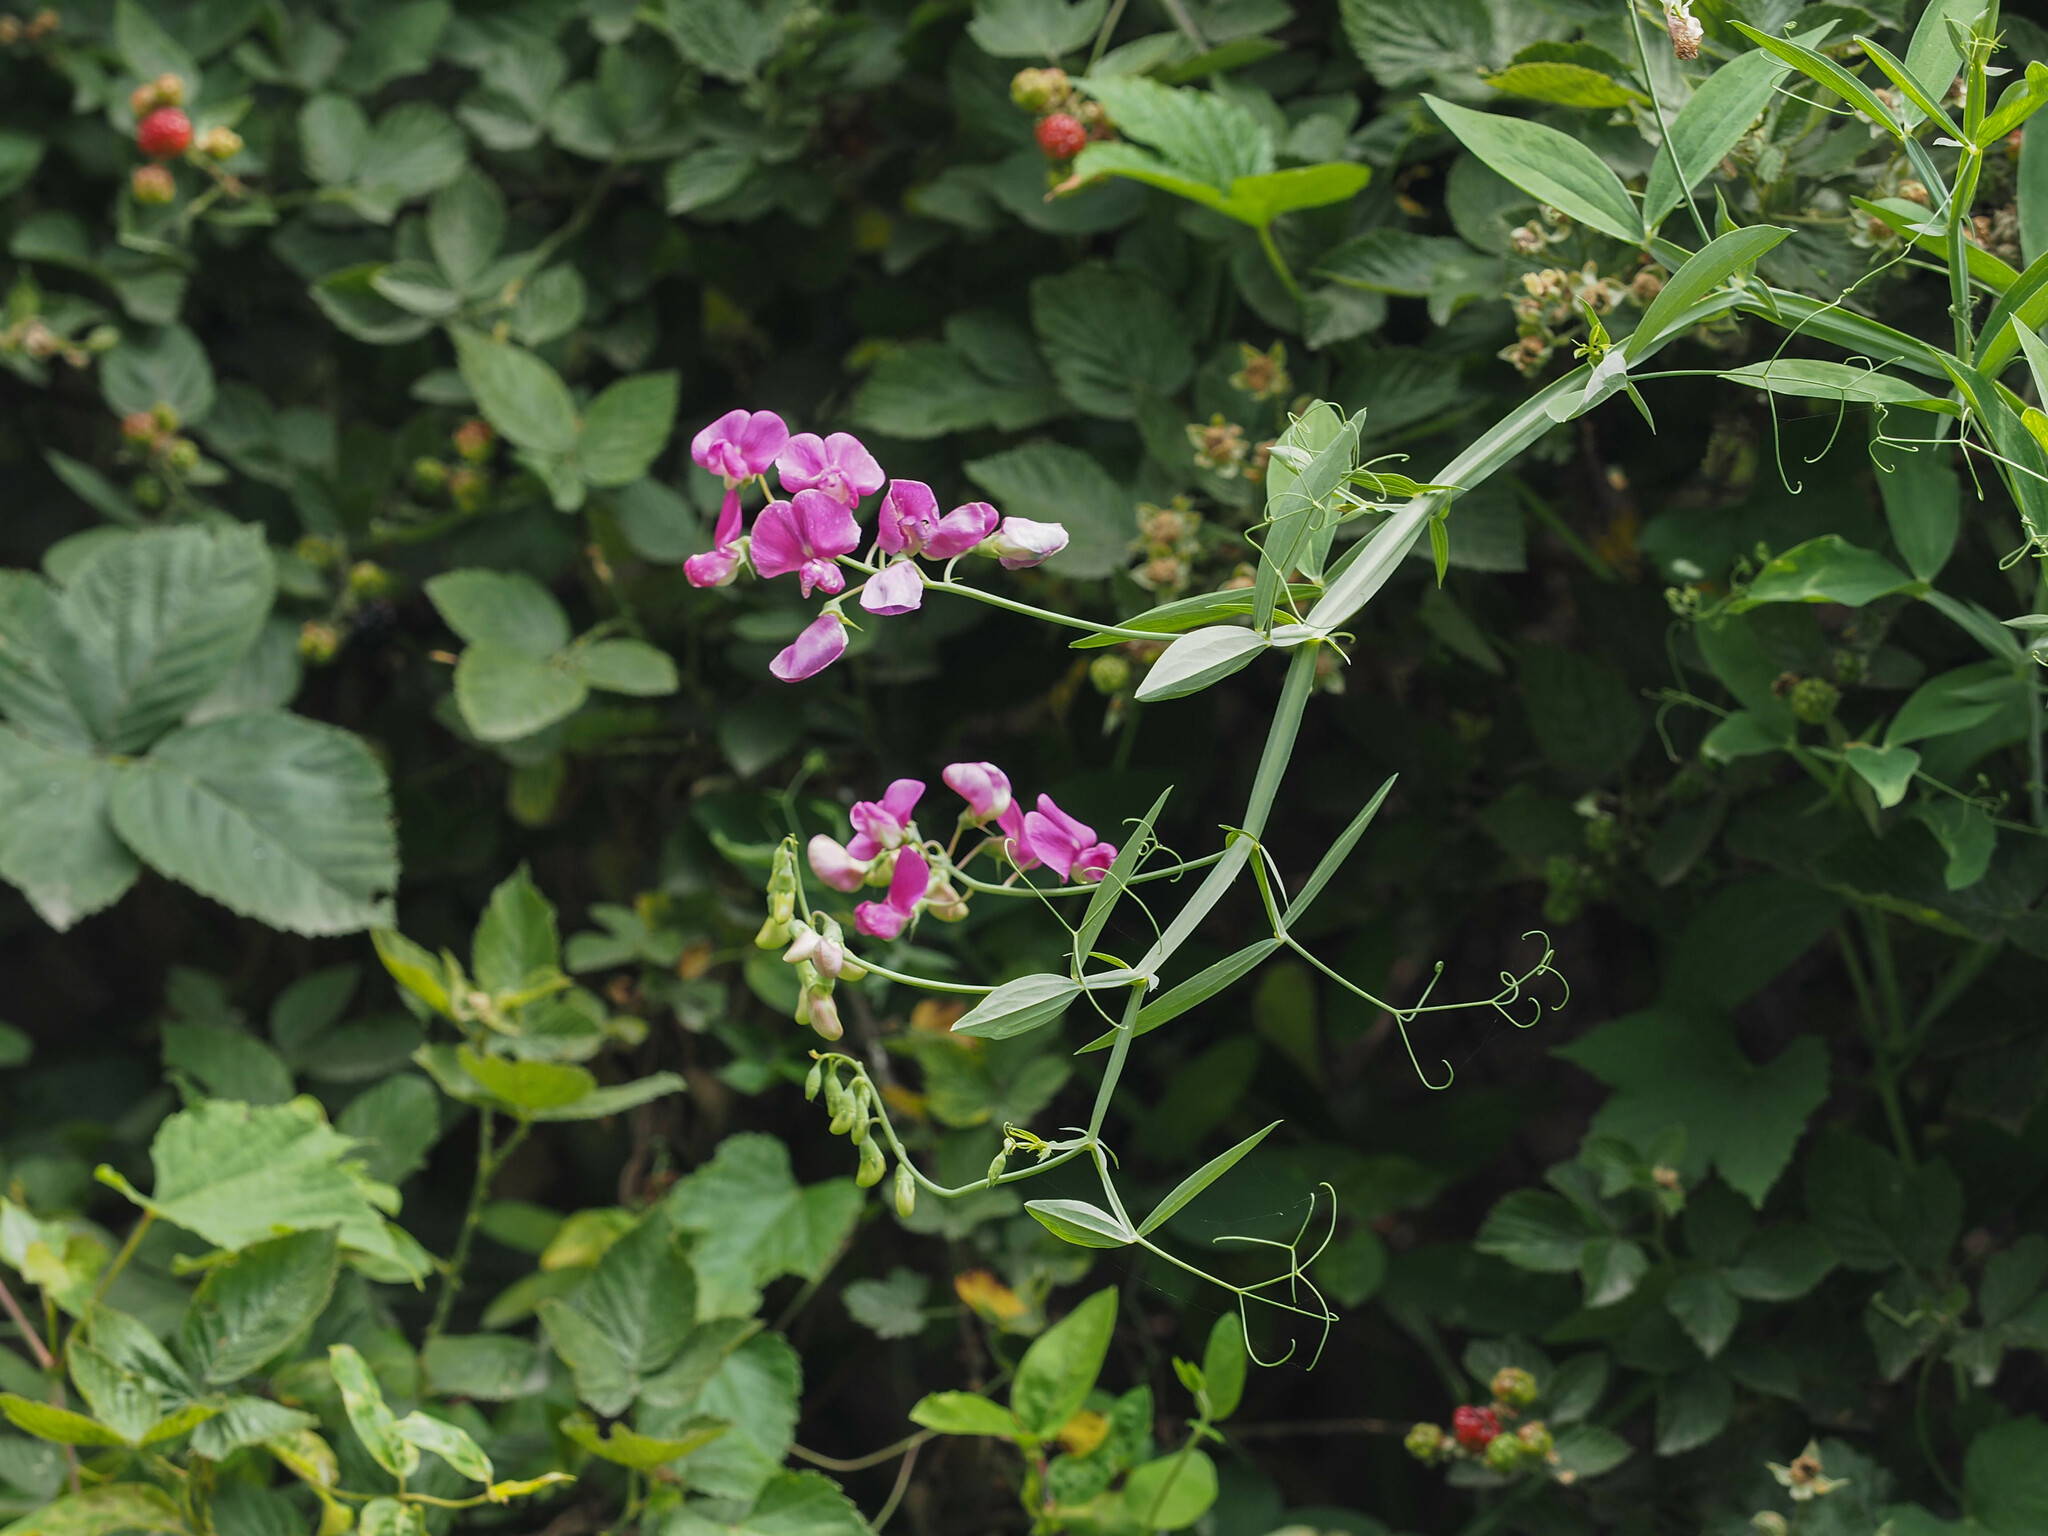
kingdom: Plantae
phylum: Tracheophyta
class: Magnoliopsida
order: Fabales
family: Fabaceae
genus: Lathyrus
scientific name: Lathyrus latifolius
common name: Perennial pea
